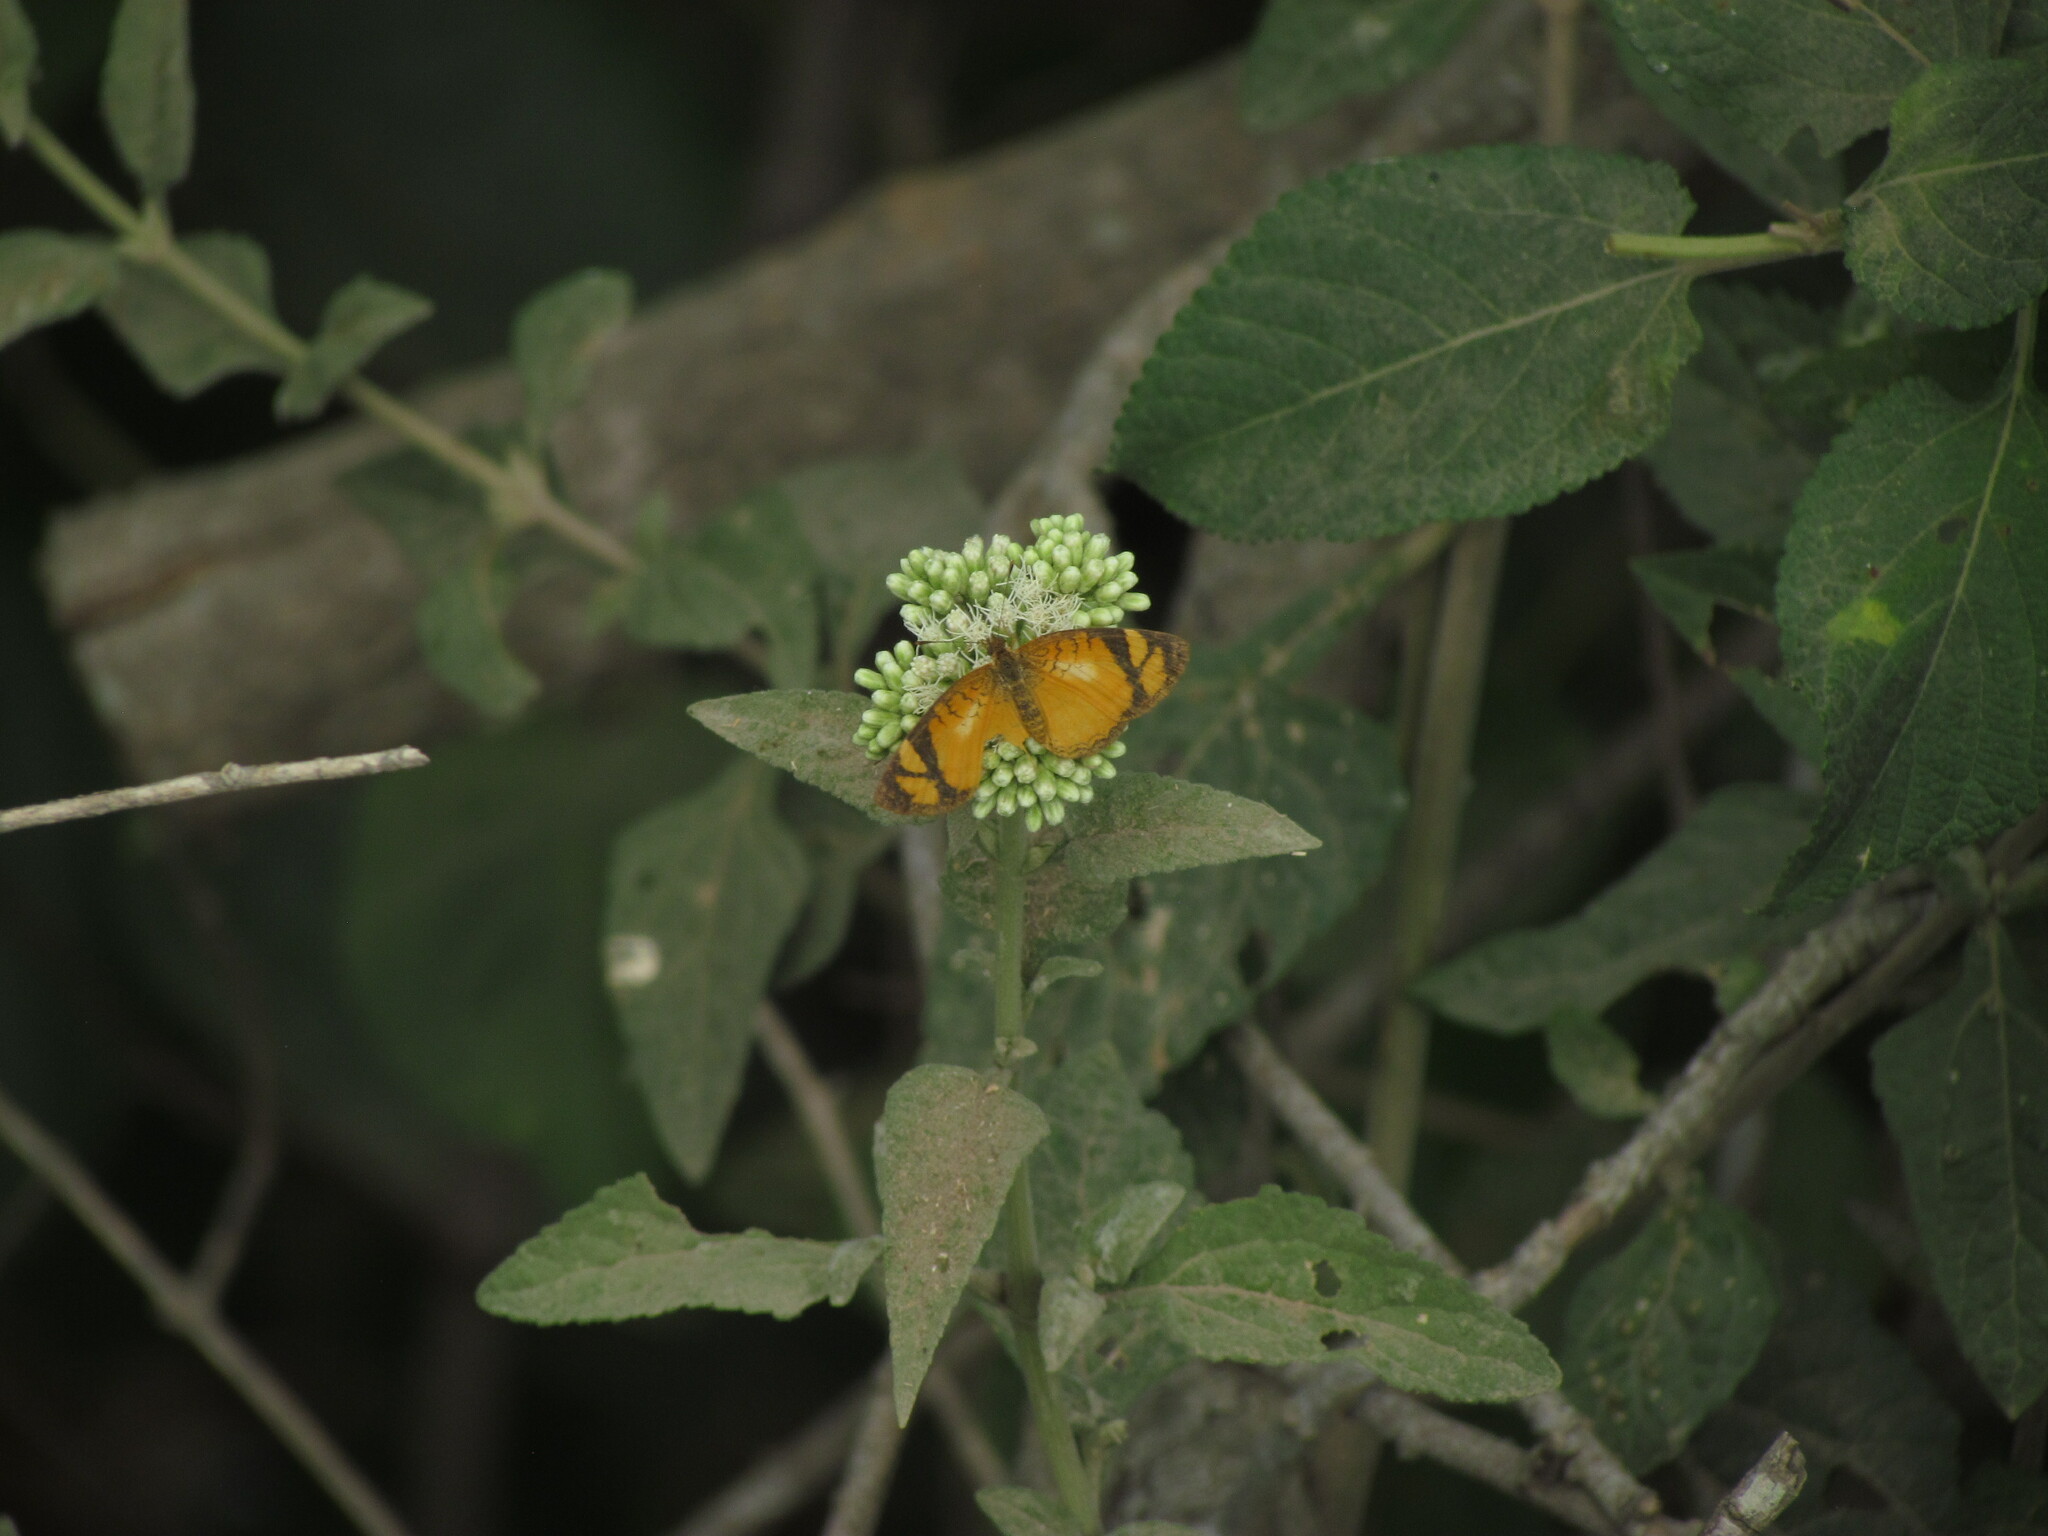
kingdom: Animalia
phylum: Arthropoda
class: Insecta
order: Lepidoptera
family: Nymphalidae
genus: Tegosa
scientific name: Tegosa claudina
